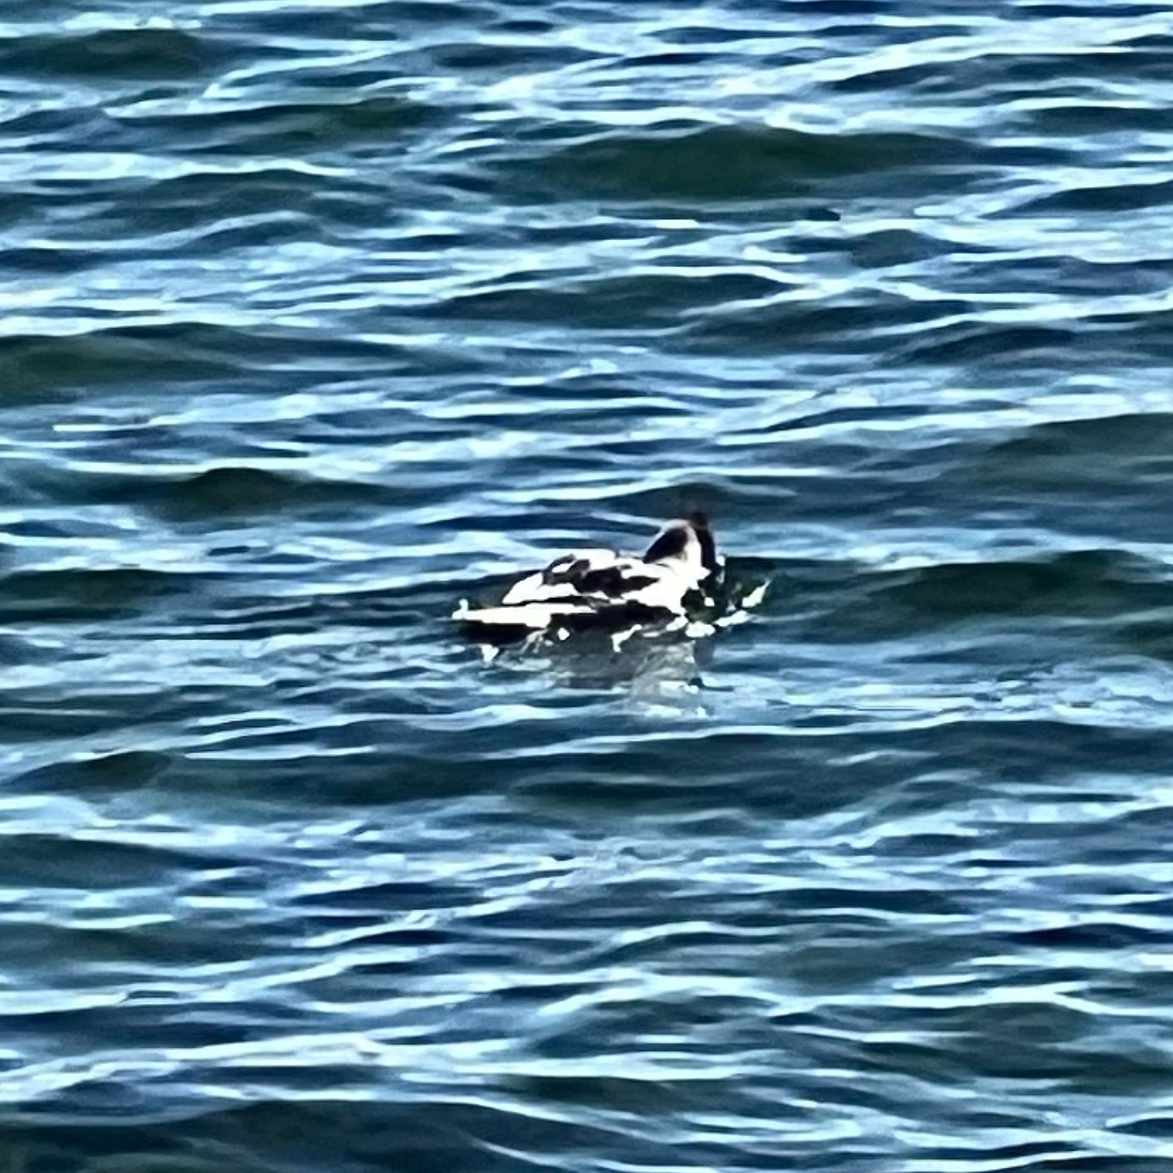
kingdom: Animalia
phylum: Chordata
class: Aves
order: Anseriformes
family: Anatidae
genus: Mergus
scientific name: Mergus merganser
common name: Common merganser
